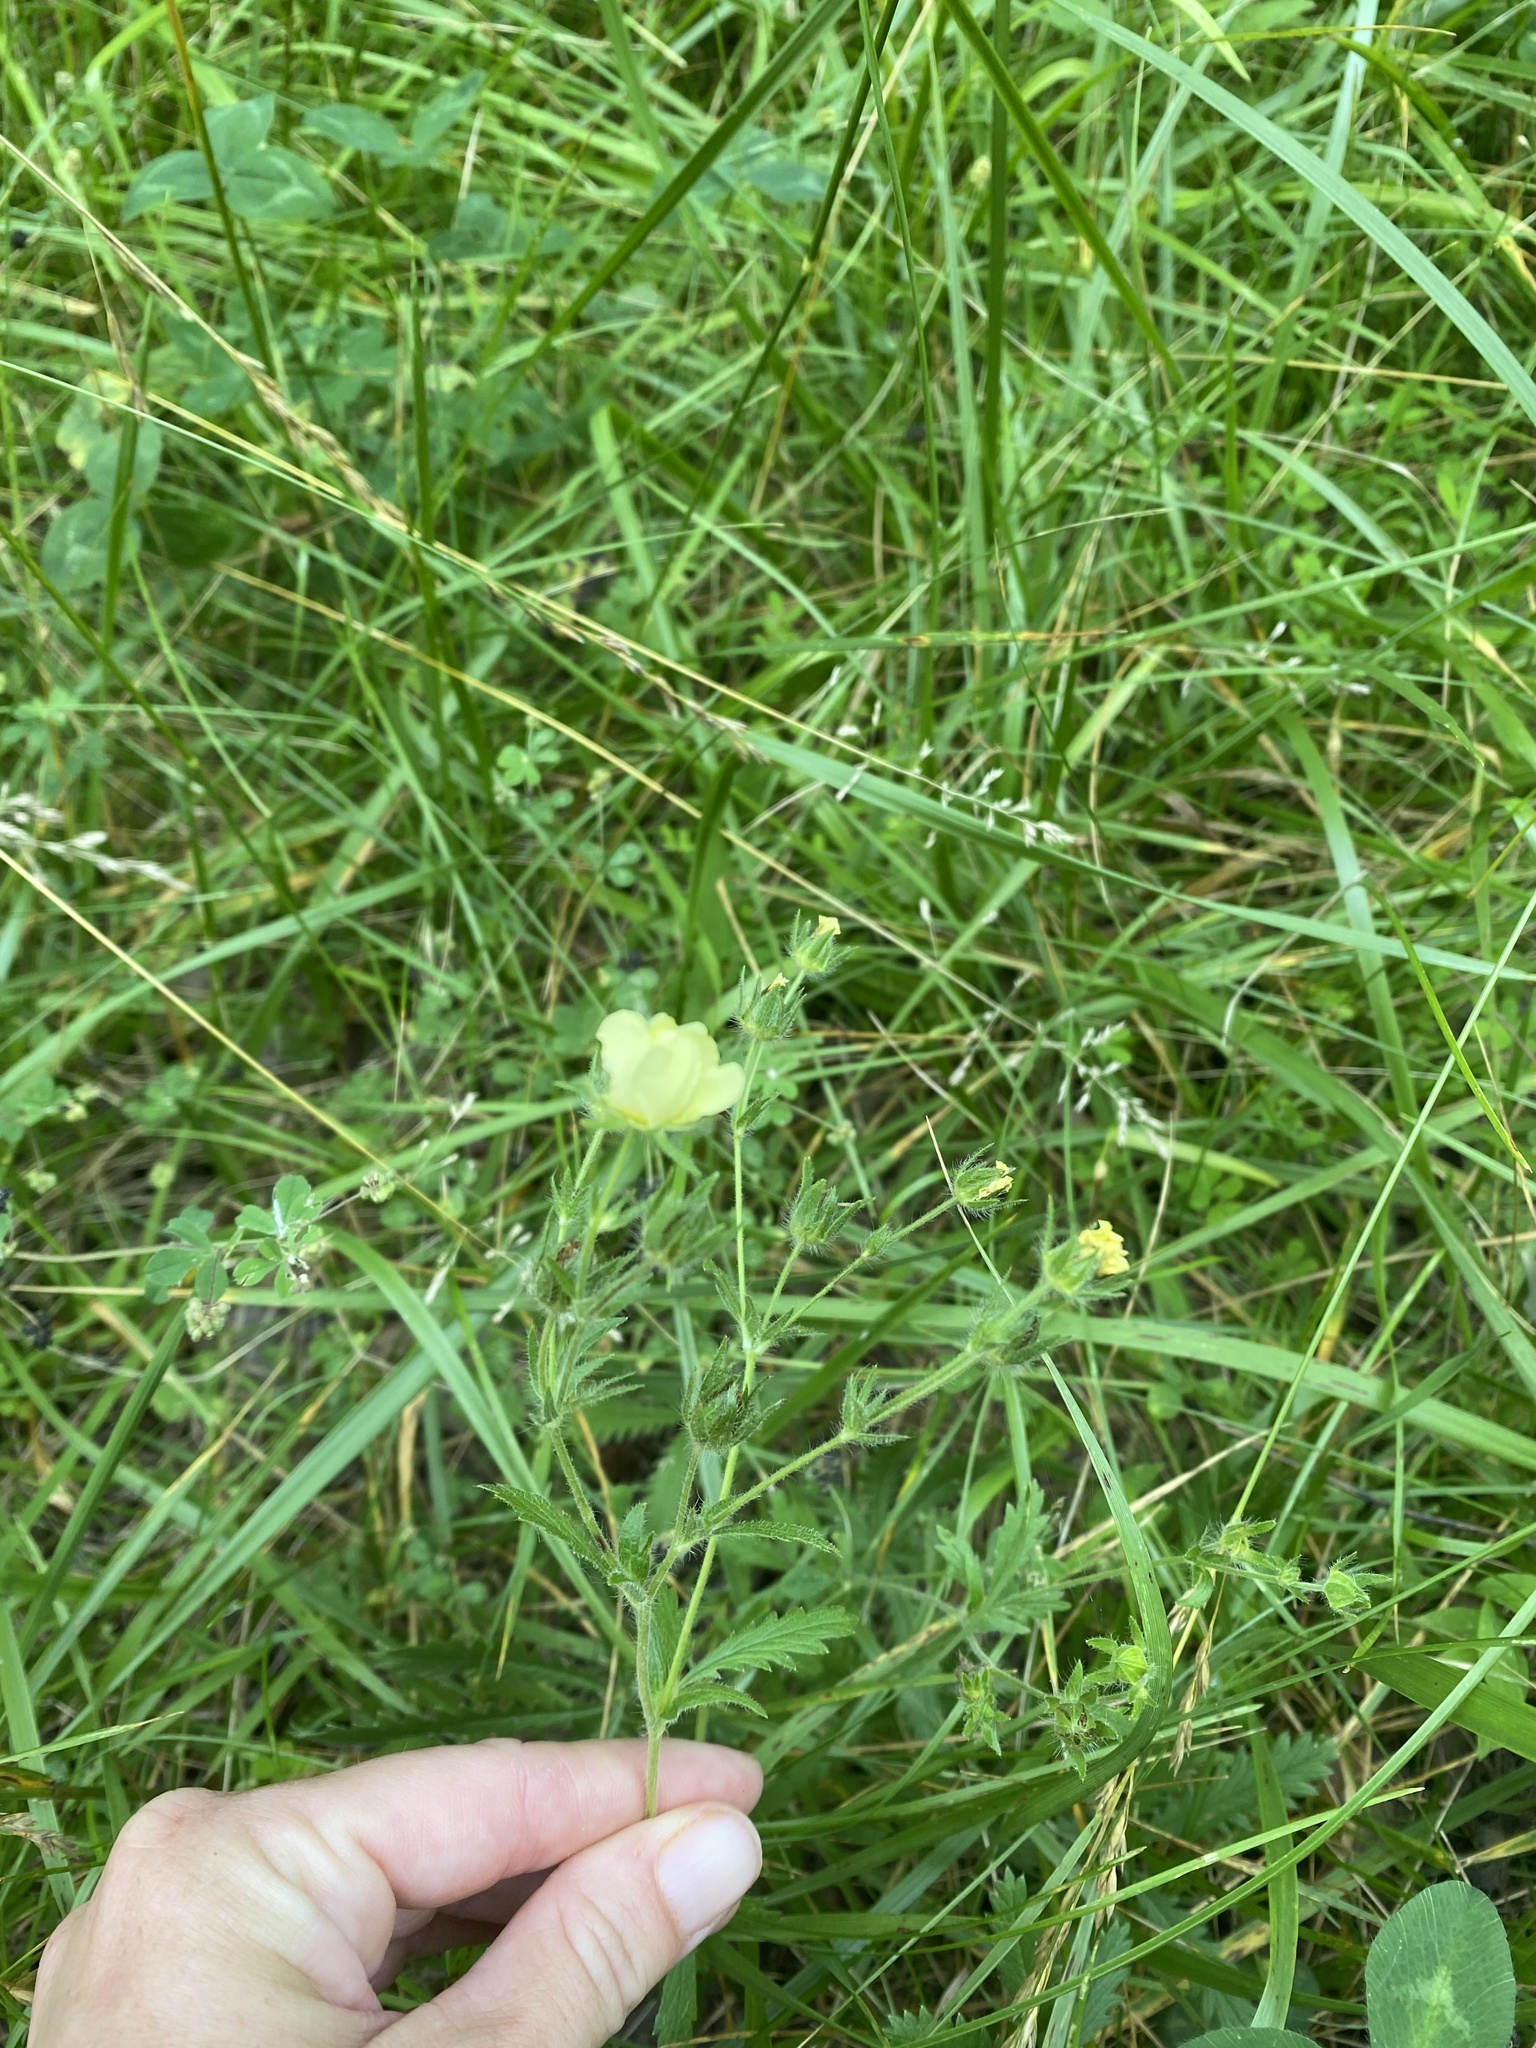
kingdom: Plantae
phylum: Tracheophyta
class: Magnoliopsida
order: Rosales
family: Rosaceae
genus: Potentilla
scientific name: Potentilla recta
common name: Sulphur cinquefoil
